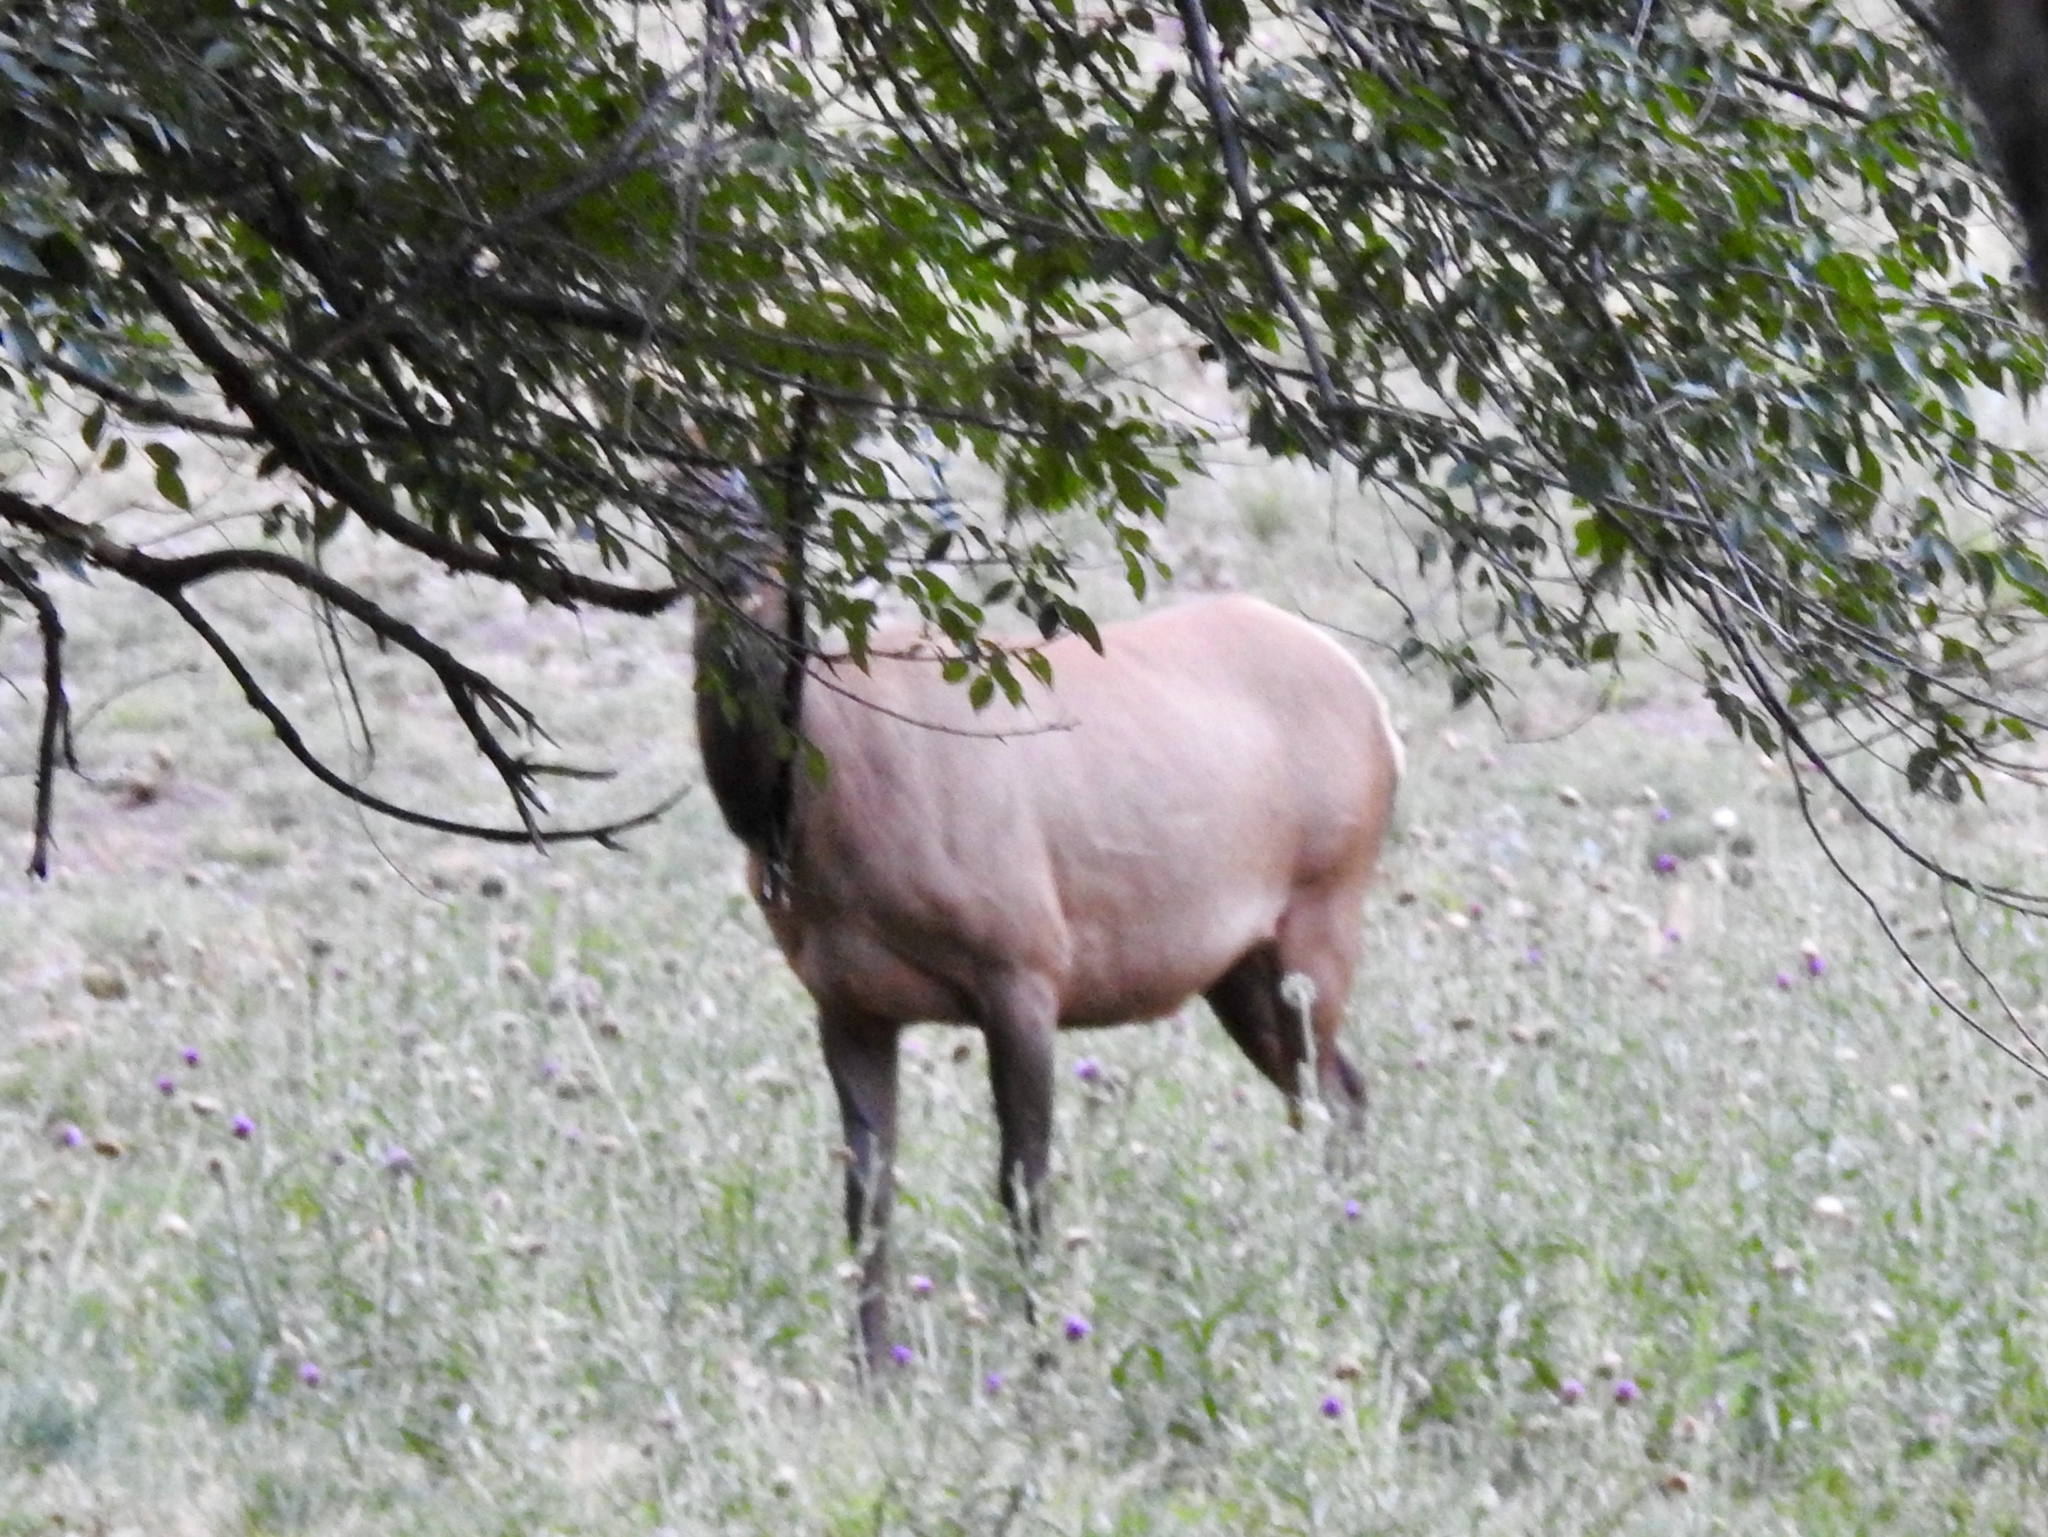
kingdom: Animalia
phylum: Chordata
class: Mammalia
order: Artiodactyla
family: Cervidae
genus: Cervus
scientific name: Cervus elaphus
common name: Red deer
